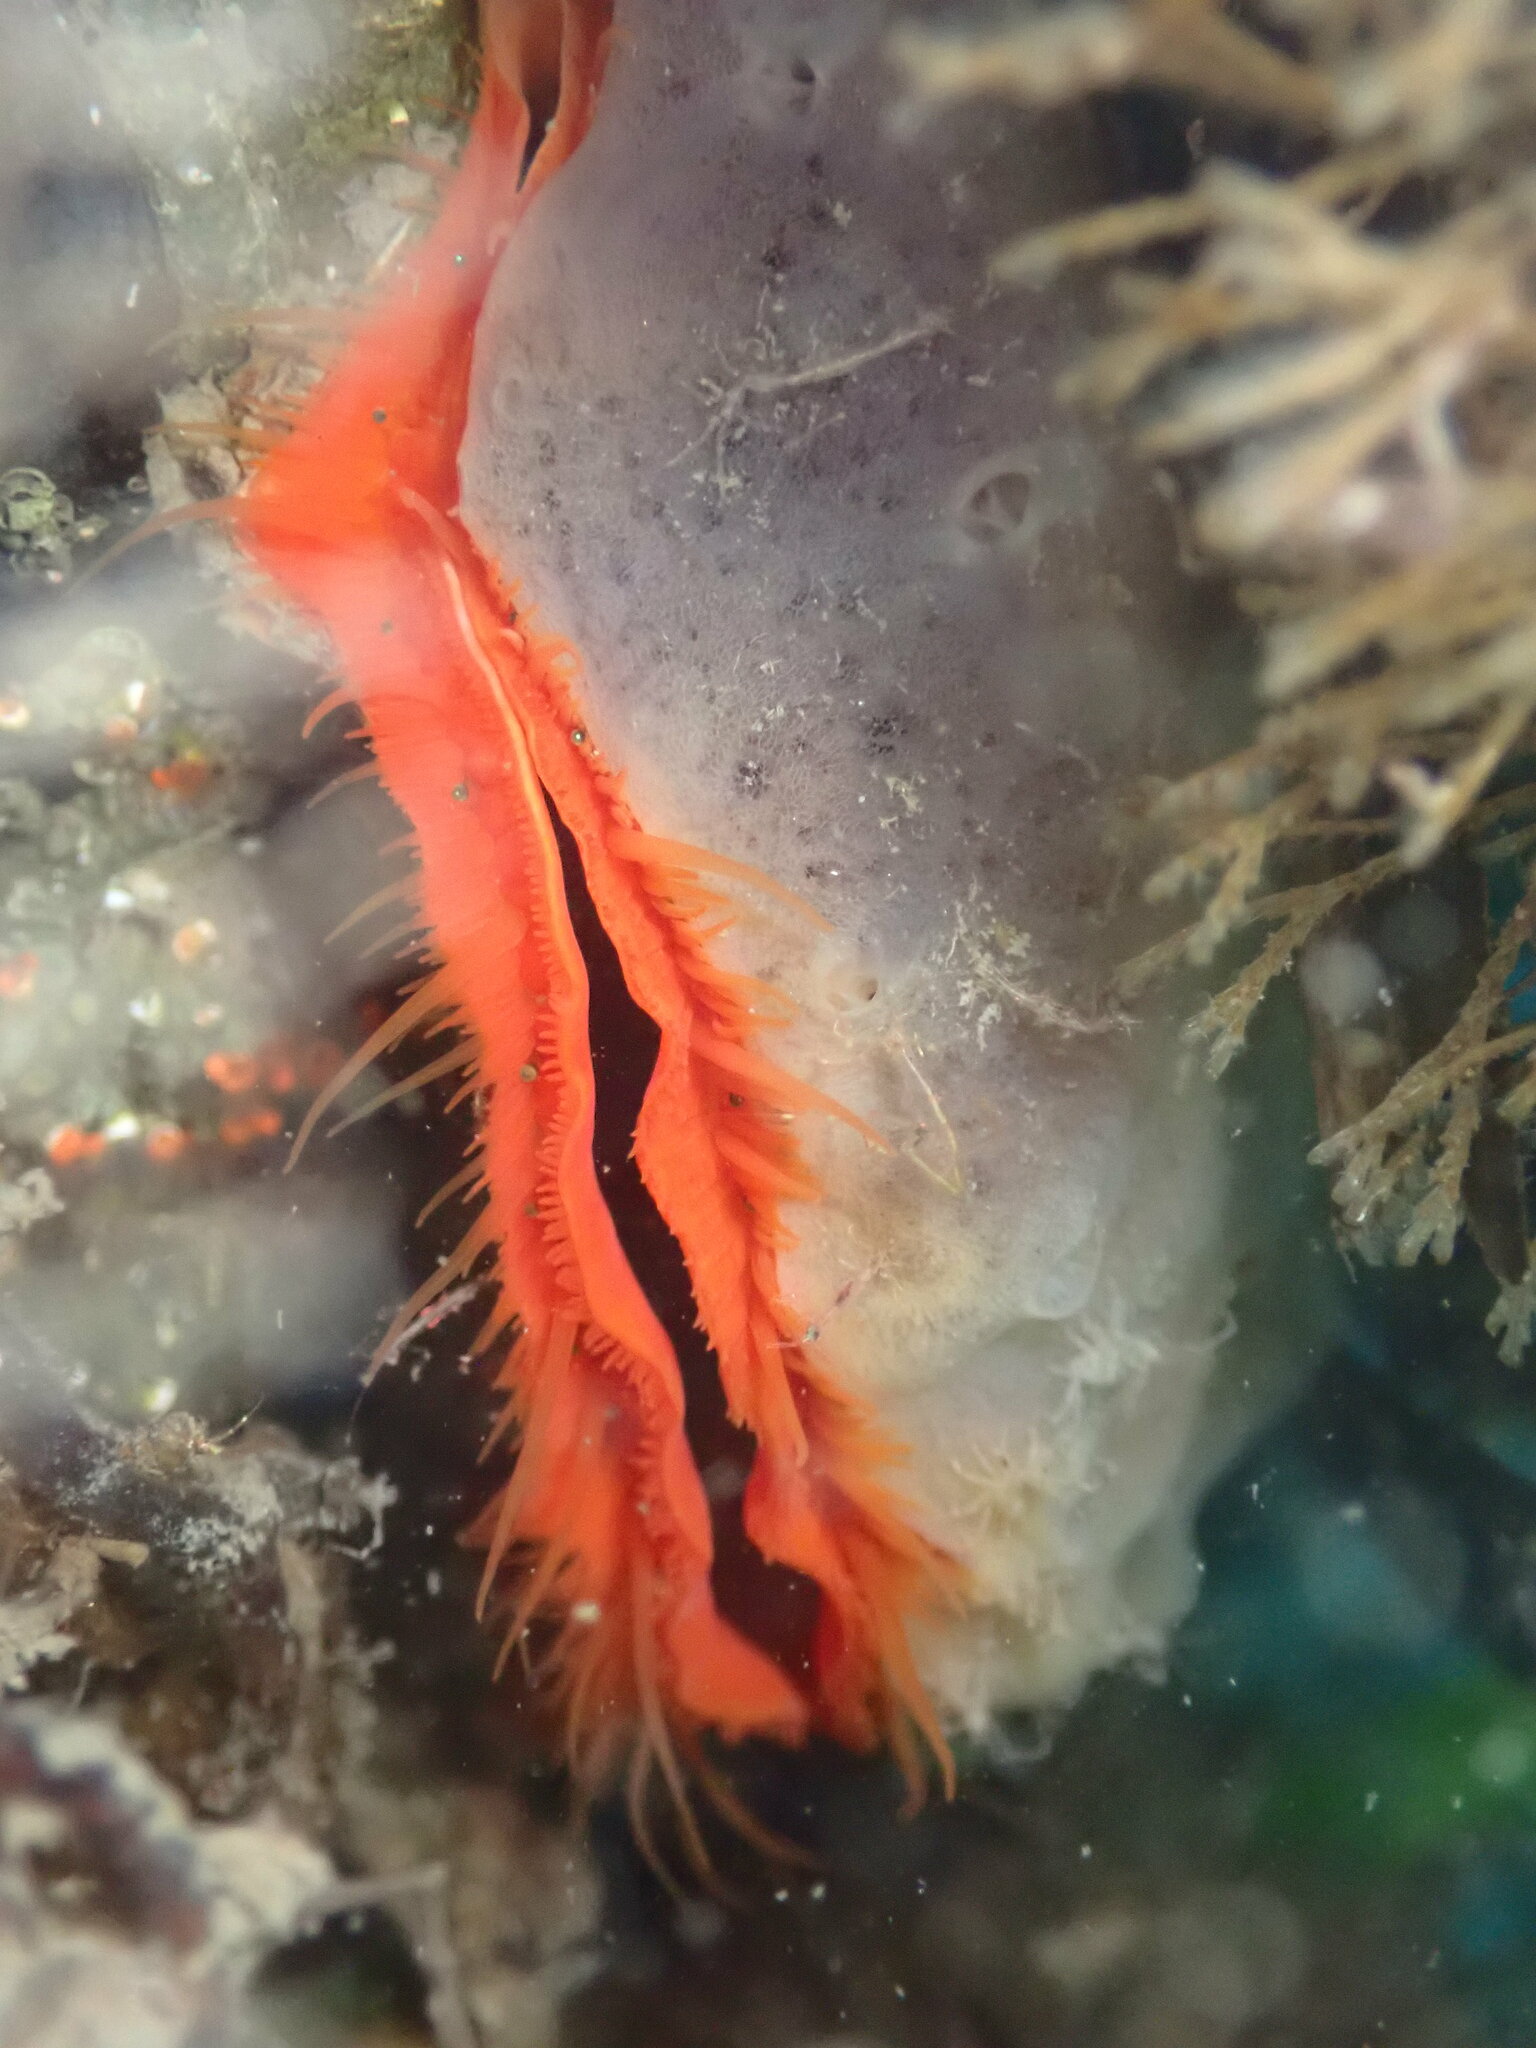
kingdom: Animalia
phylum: Mollusca
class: Bivalvia
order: Pectinida
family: Pectinidae
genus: Crassadoma
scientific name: Crassadoma gigantea
